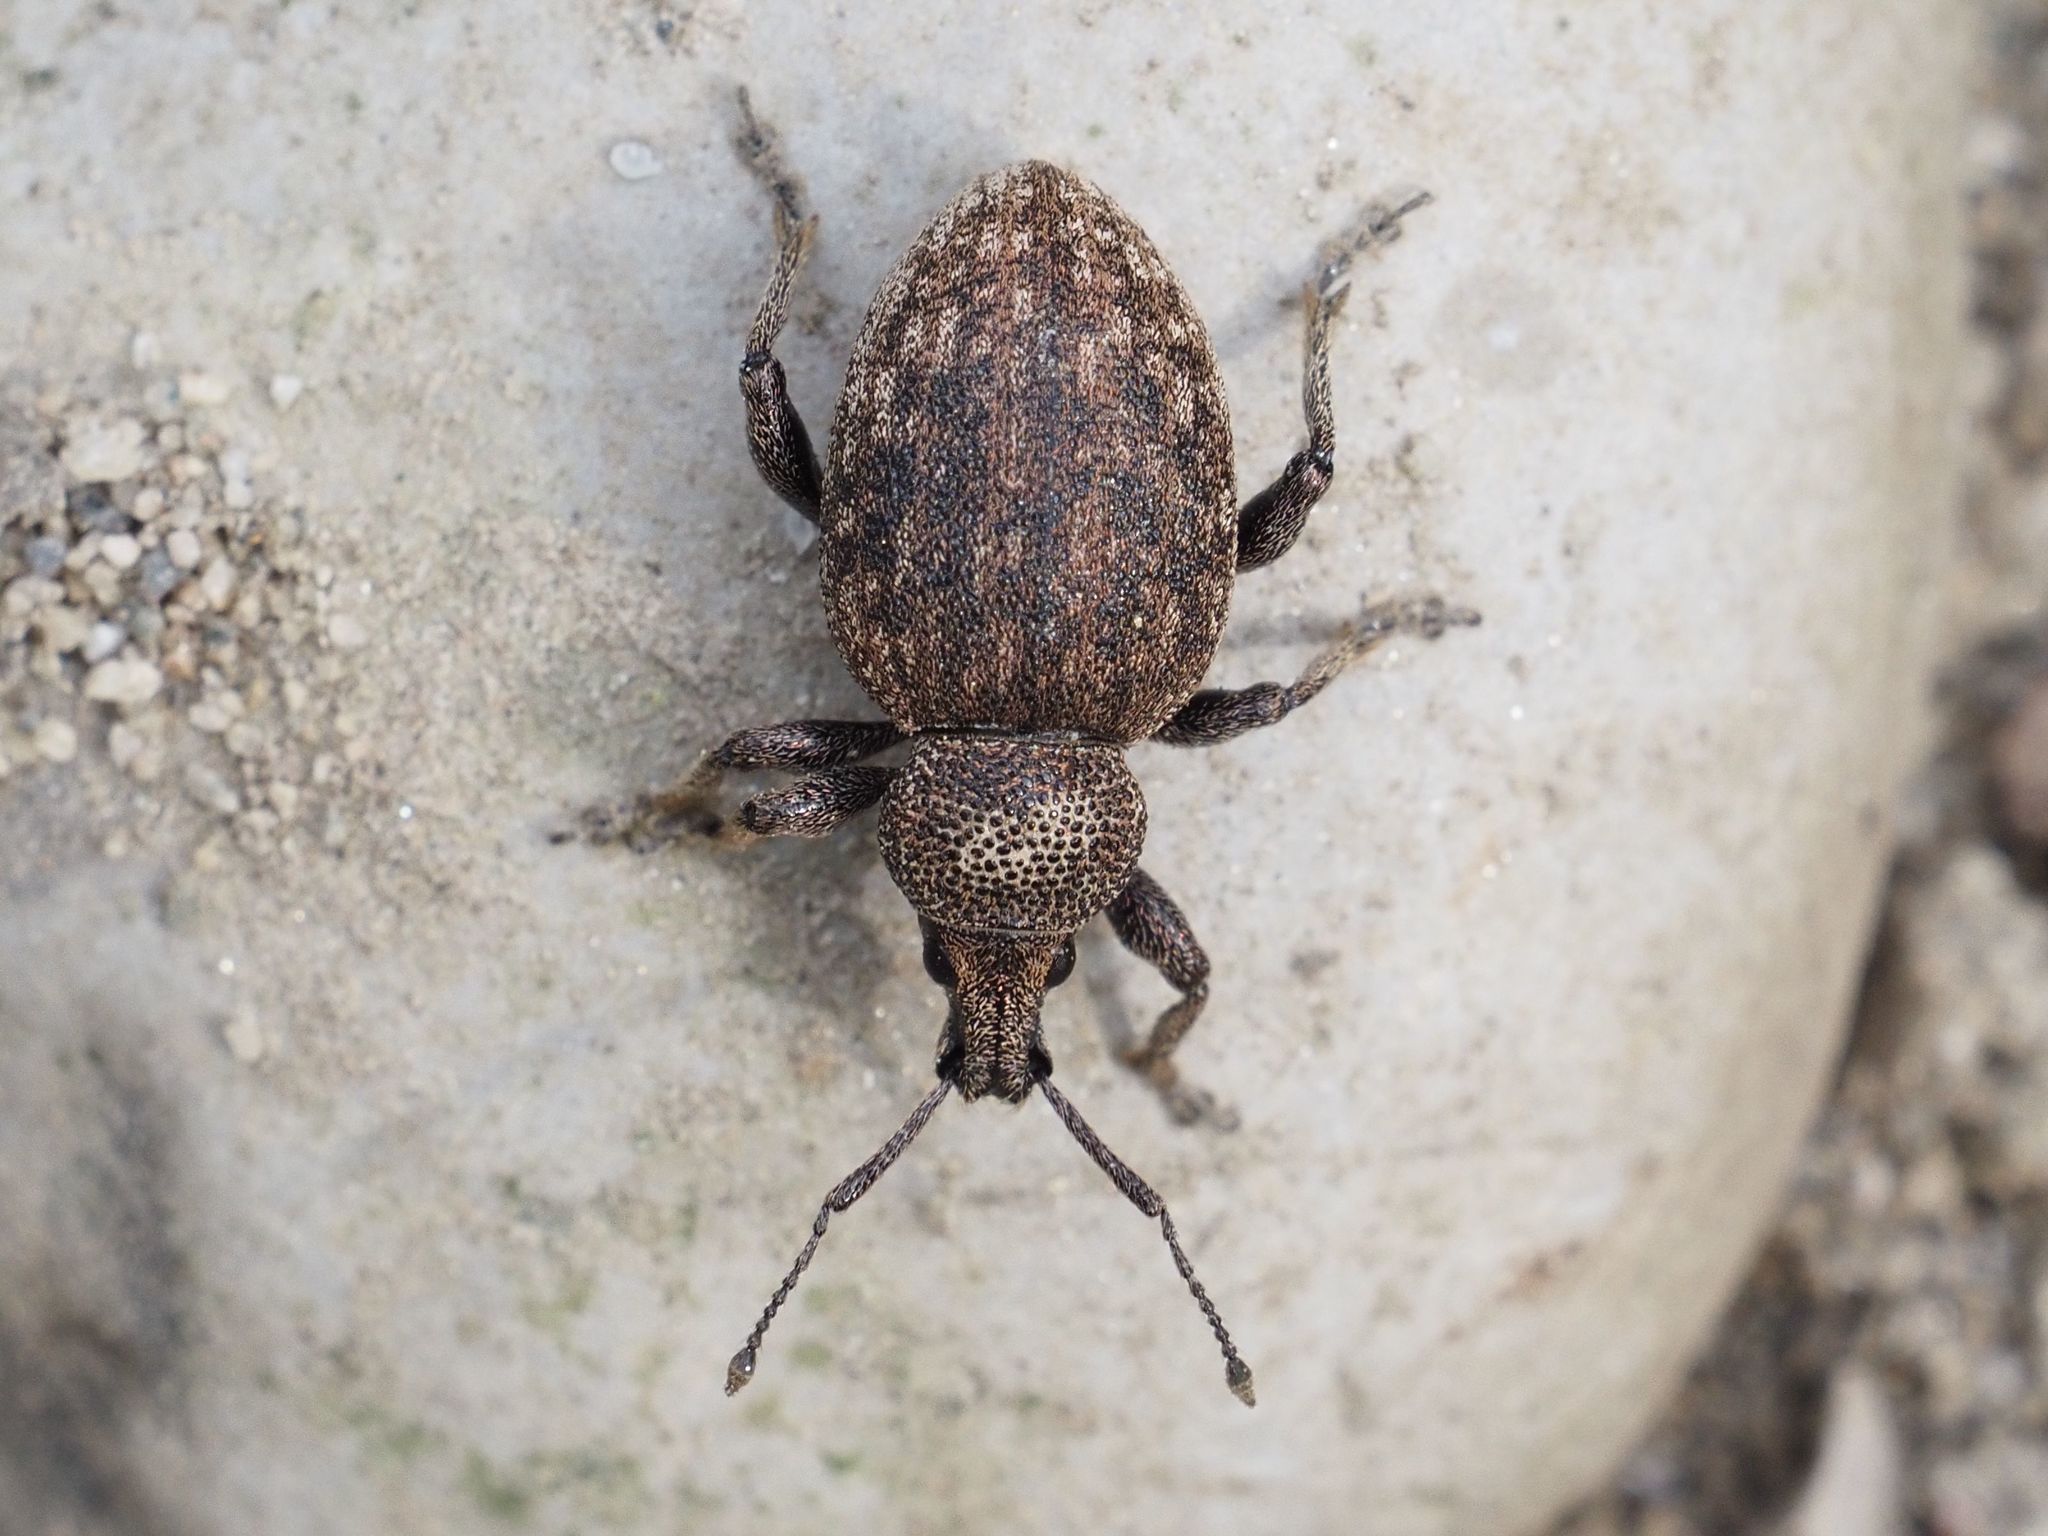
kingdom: Animalia
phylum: Arthropoda
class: Insecta
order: Coleoptera
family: Curculionidae
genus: Otiorhynchus
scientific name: Otiorhynchus ligustici
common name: Weevil
